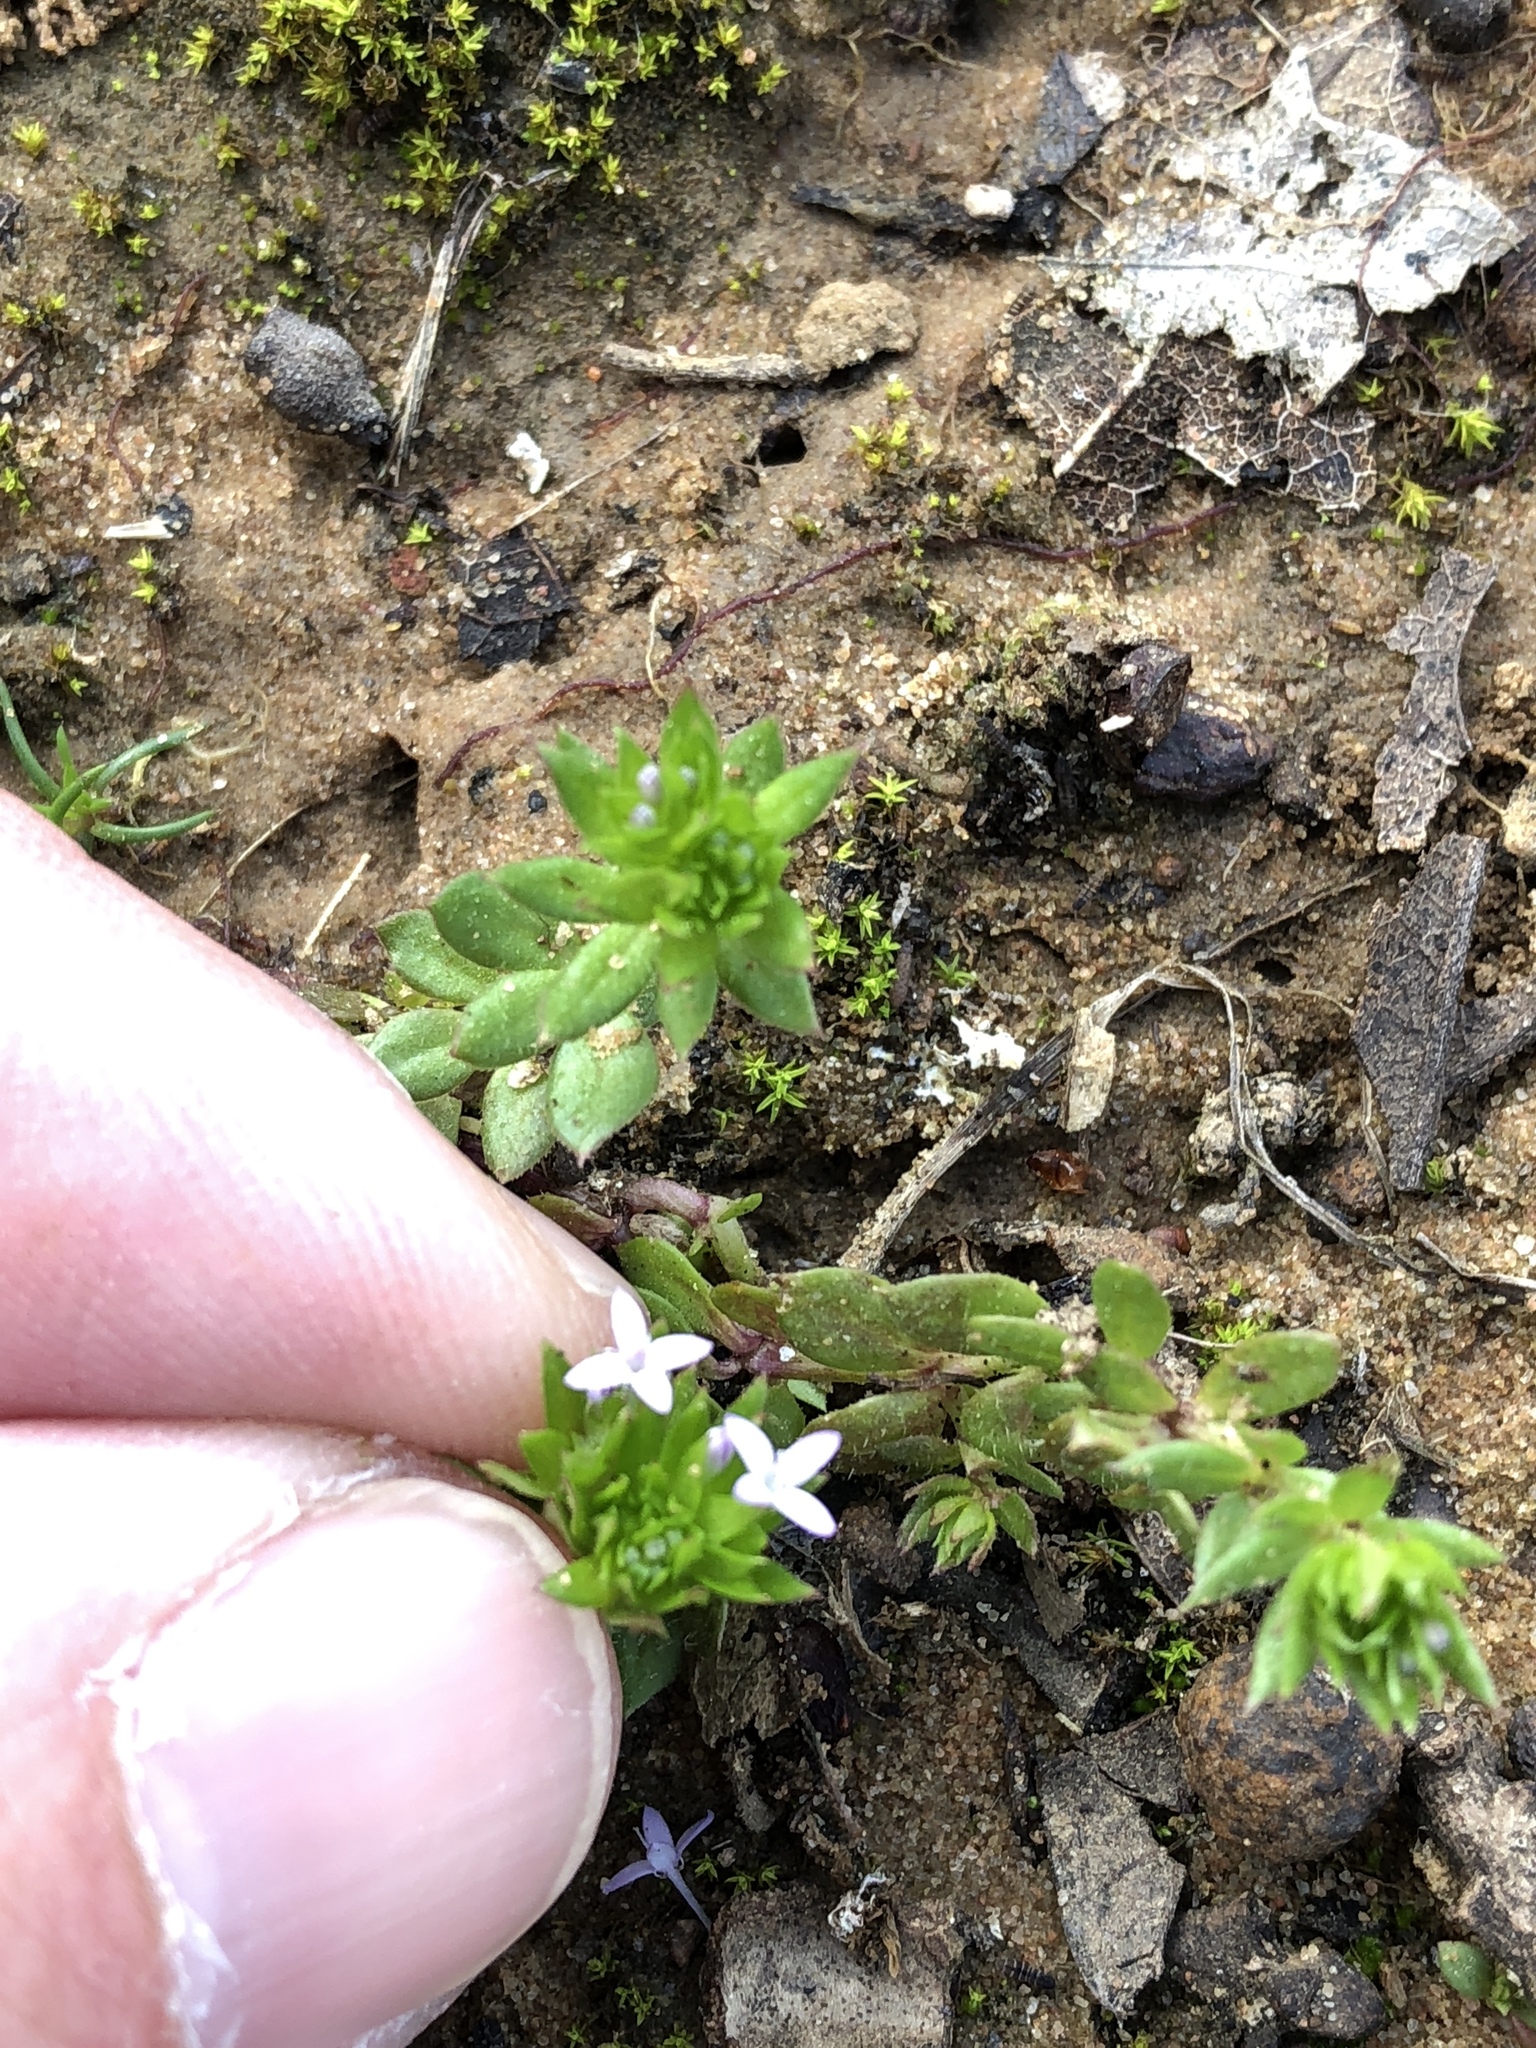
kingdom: Plantae
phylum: Tracheophyta
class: Magnoliopsida
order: Gentianales
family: Rubiaceae
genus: Sherardia
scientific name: Sherardia arvensis
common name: Field madder
